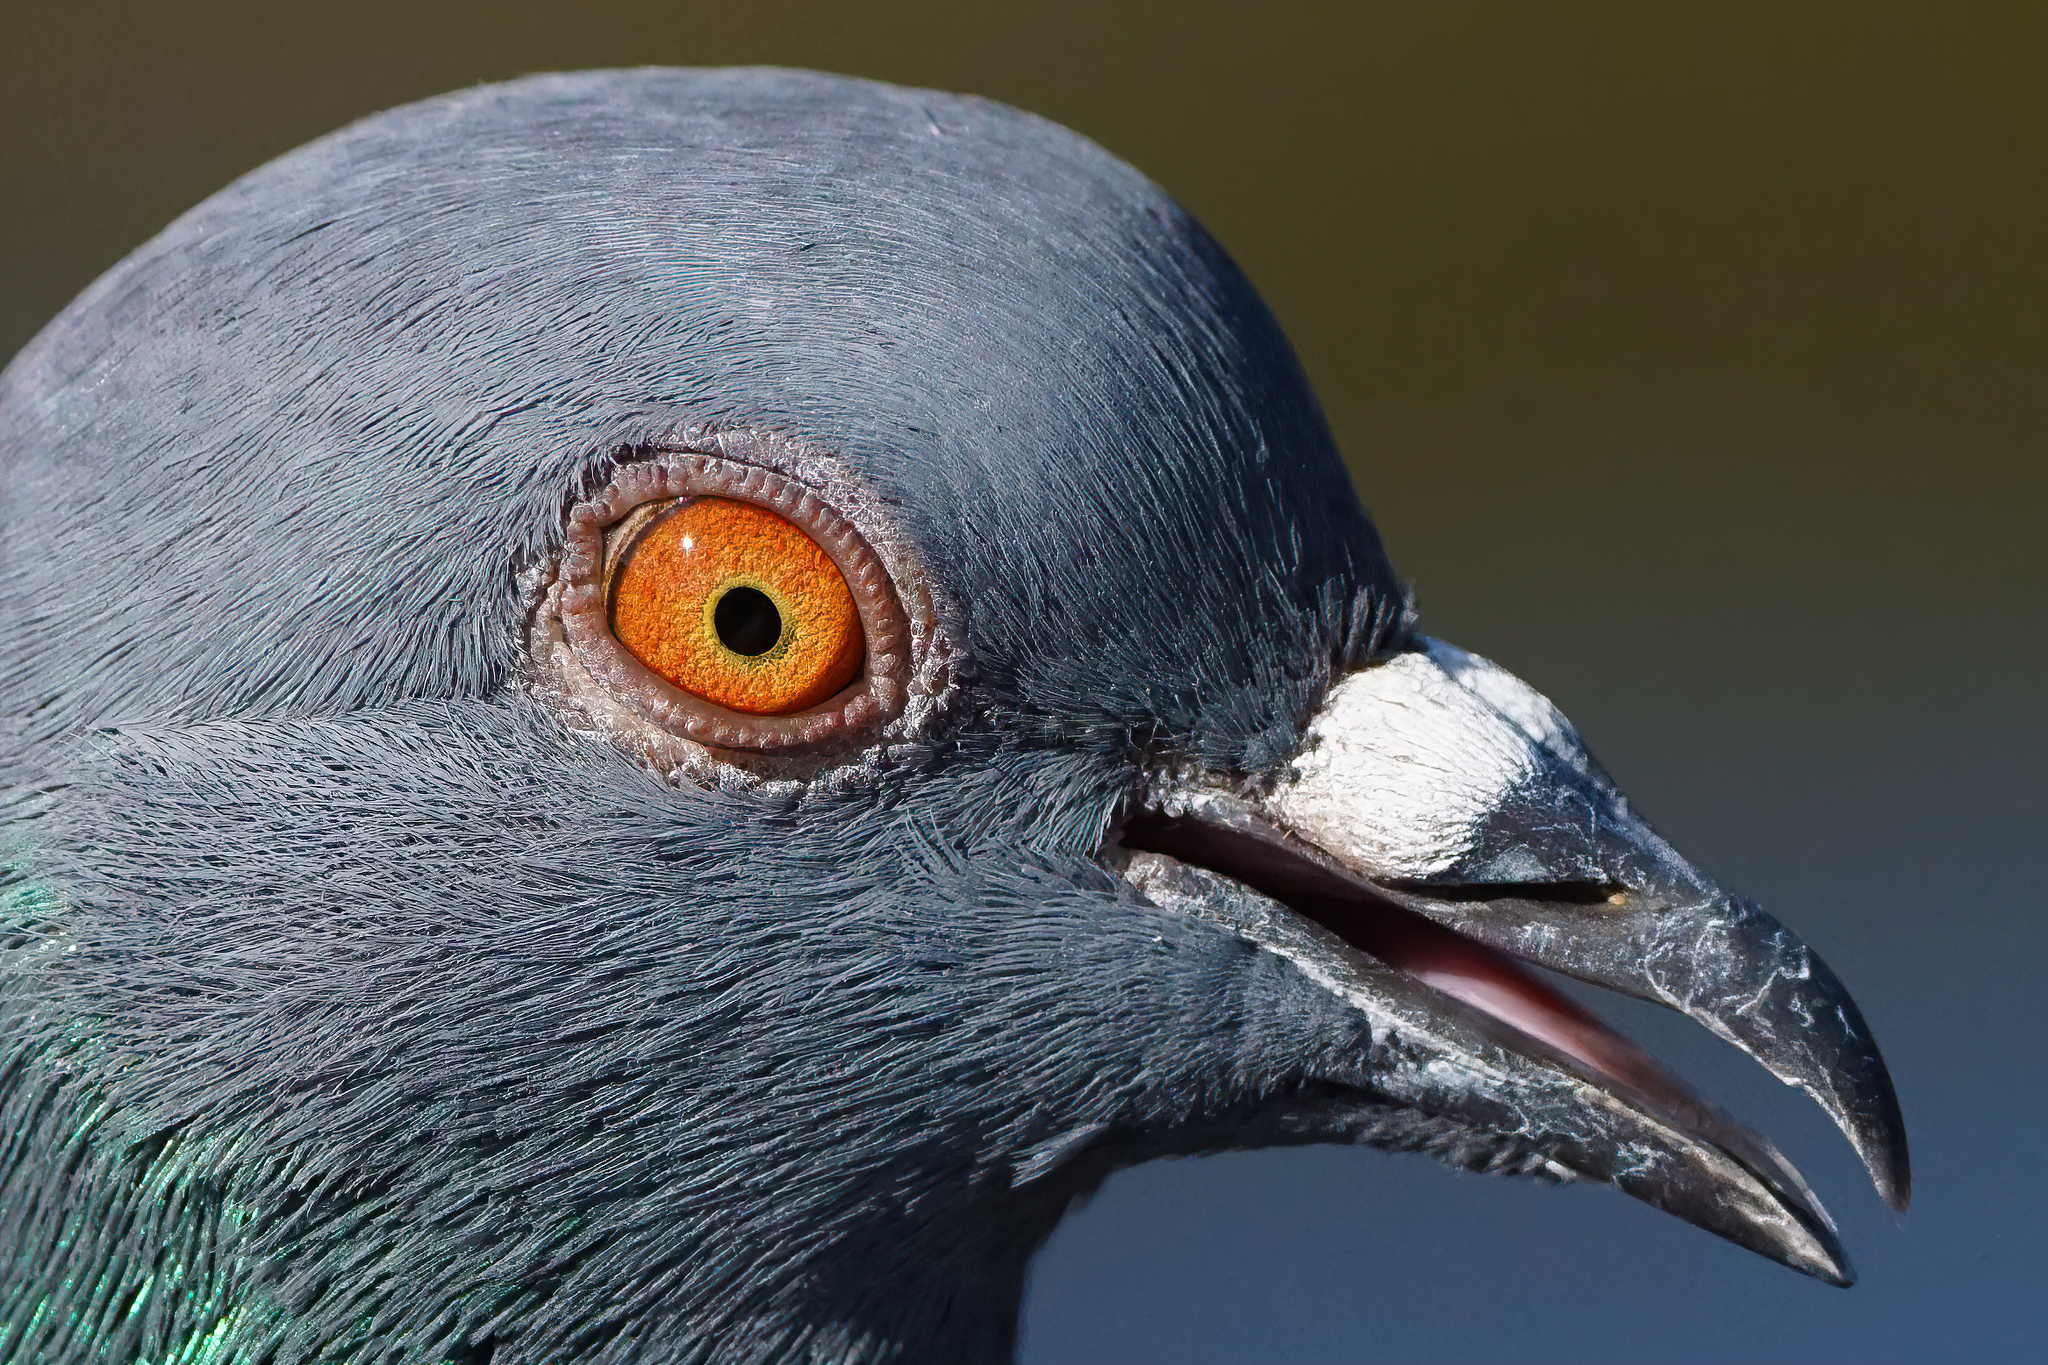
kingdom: Animalia
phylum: Chordata
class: Aves
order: Columbiformes
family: Columbidae
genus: Columba
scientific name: Columba livia
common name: Rock pigeon
